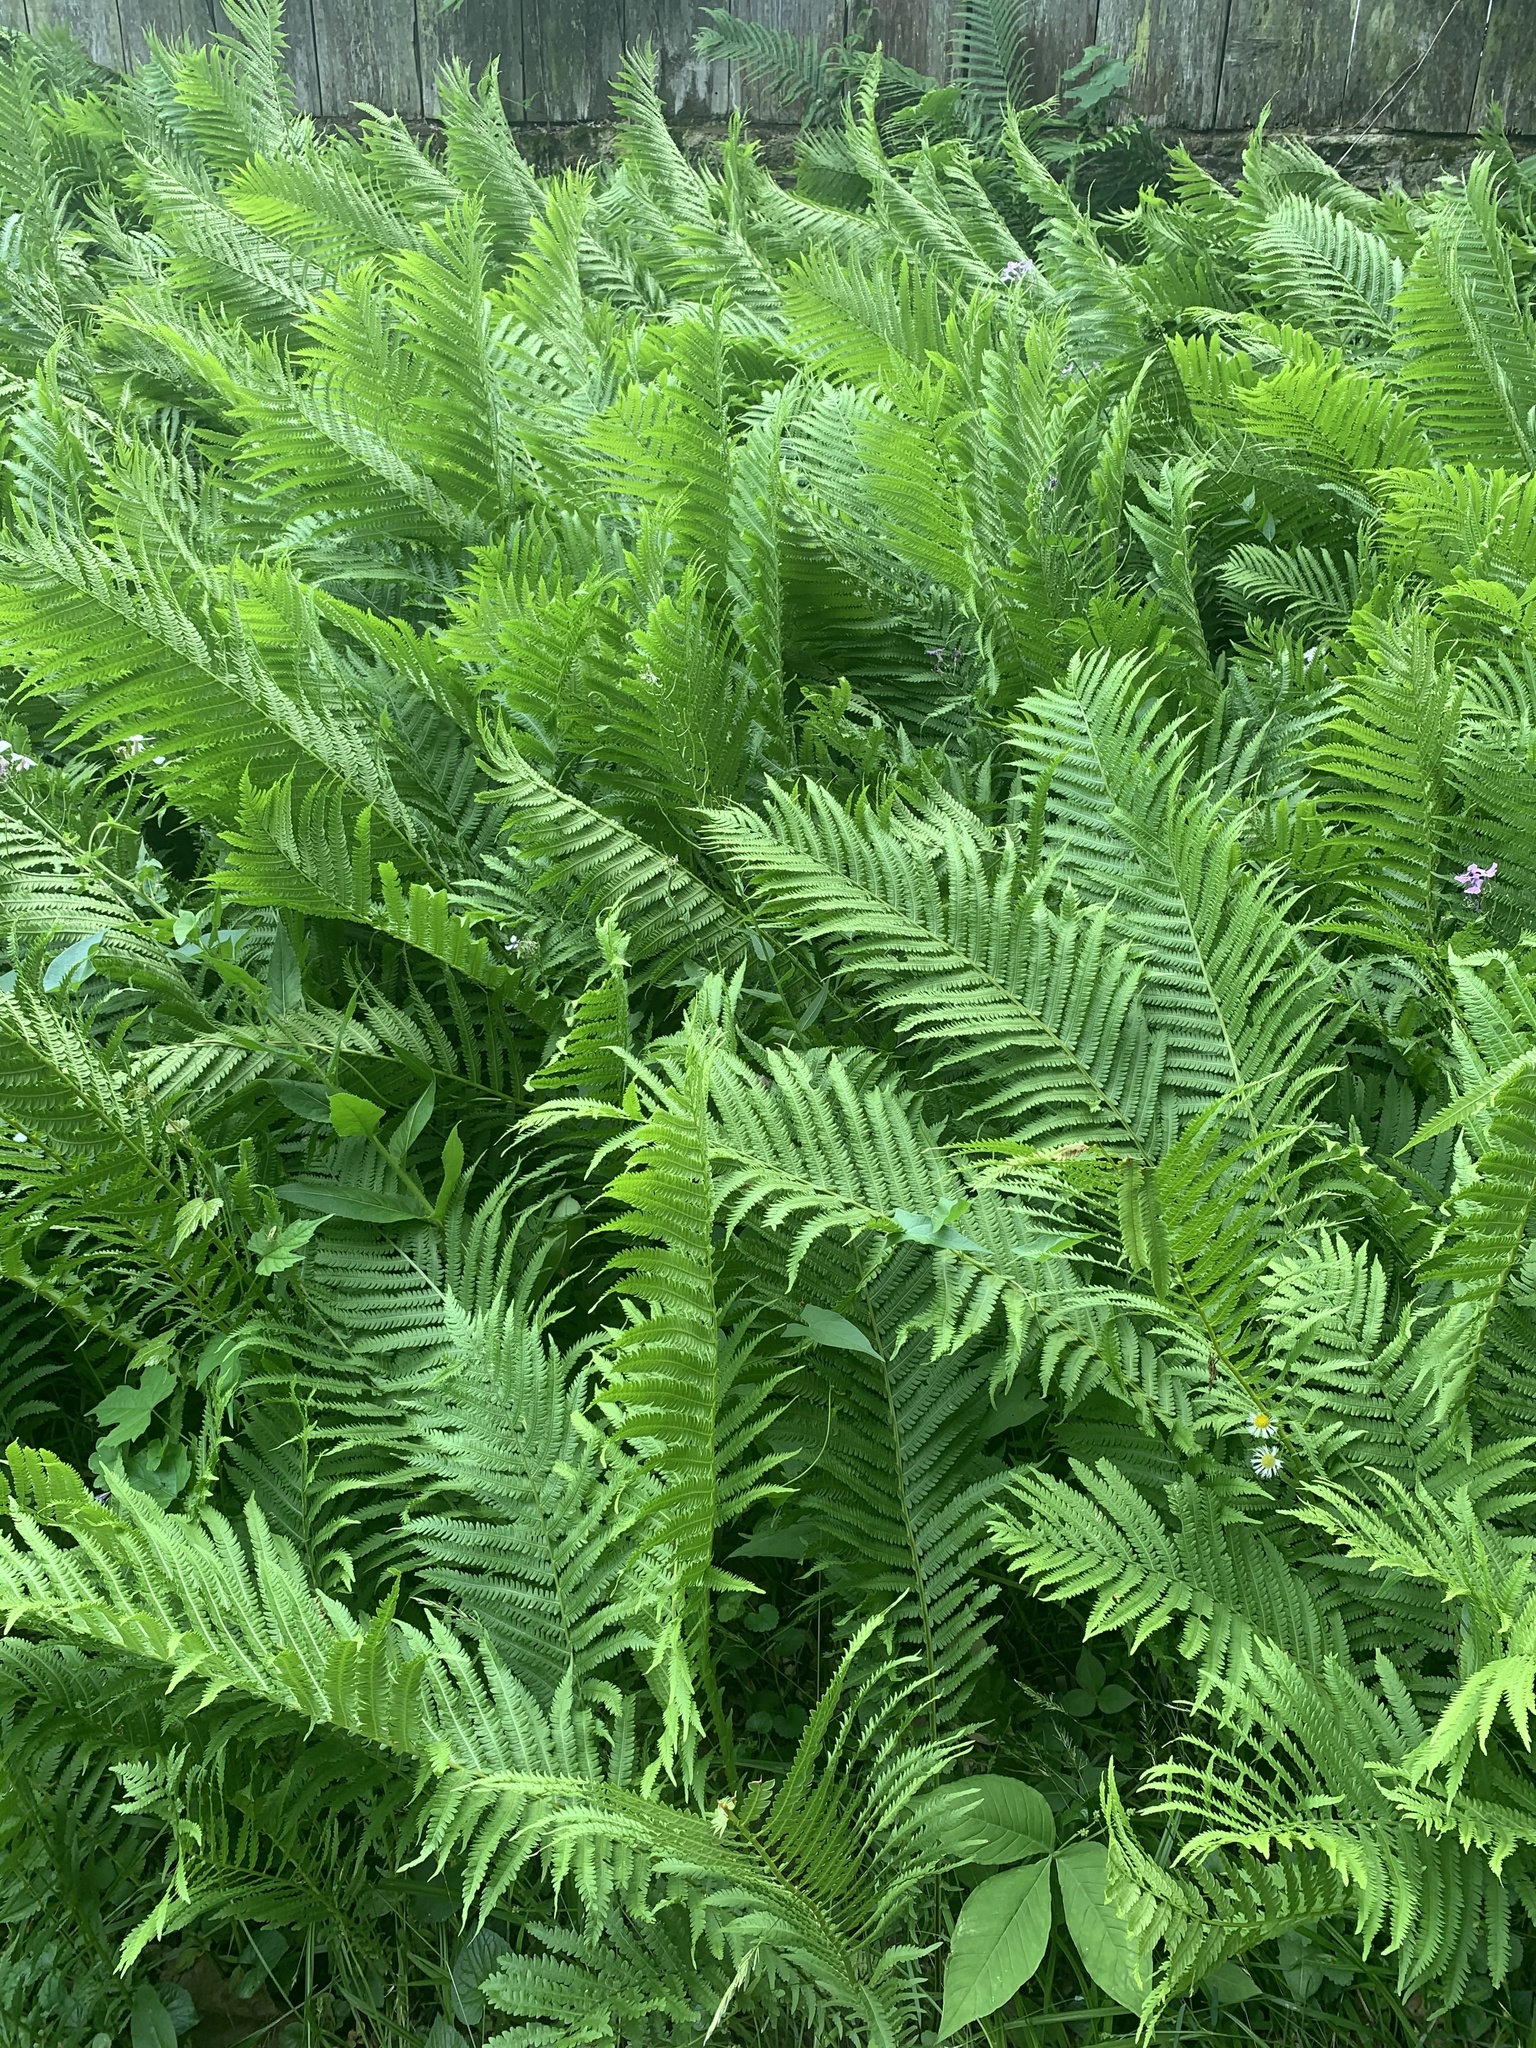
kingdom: Plantae
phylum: Tracheophyta
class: Polypodiopsida
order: Polypodiales
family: Onocleaceae
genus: Matteuccia
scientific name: Matteuccia struthiopteris
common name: Ostrich fern
